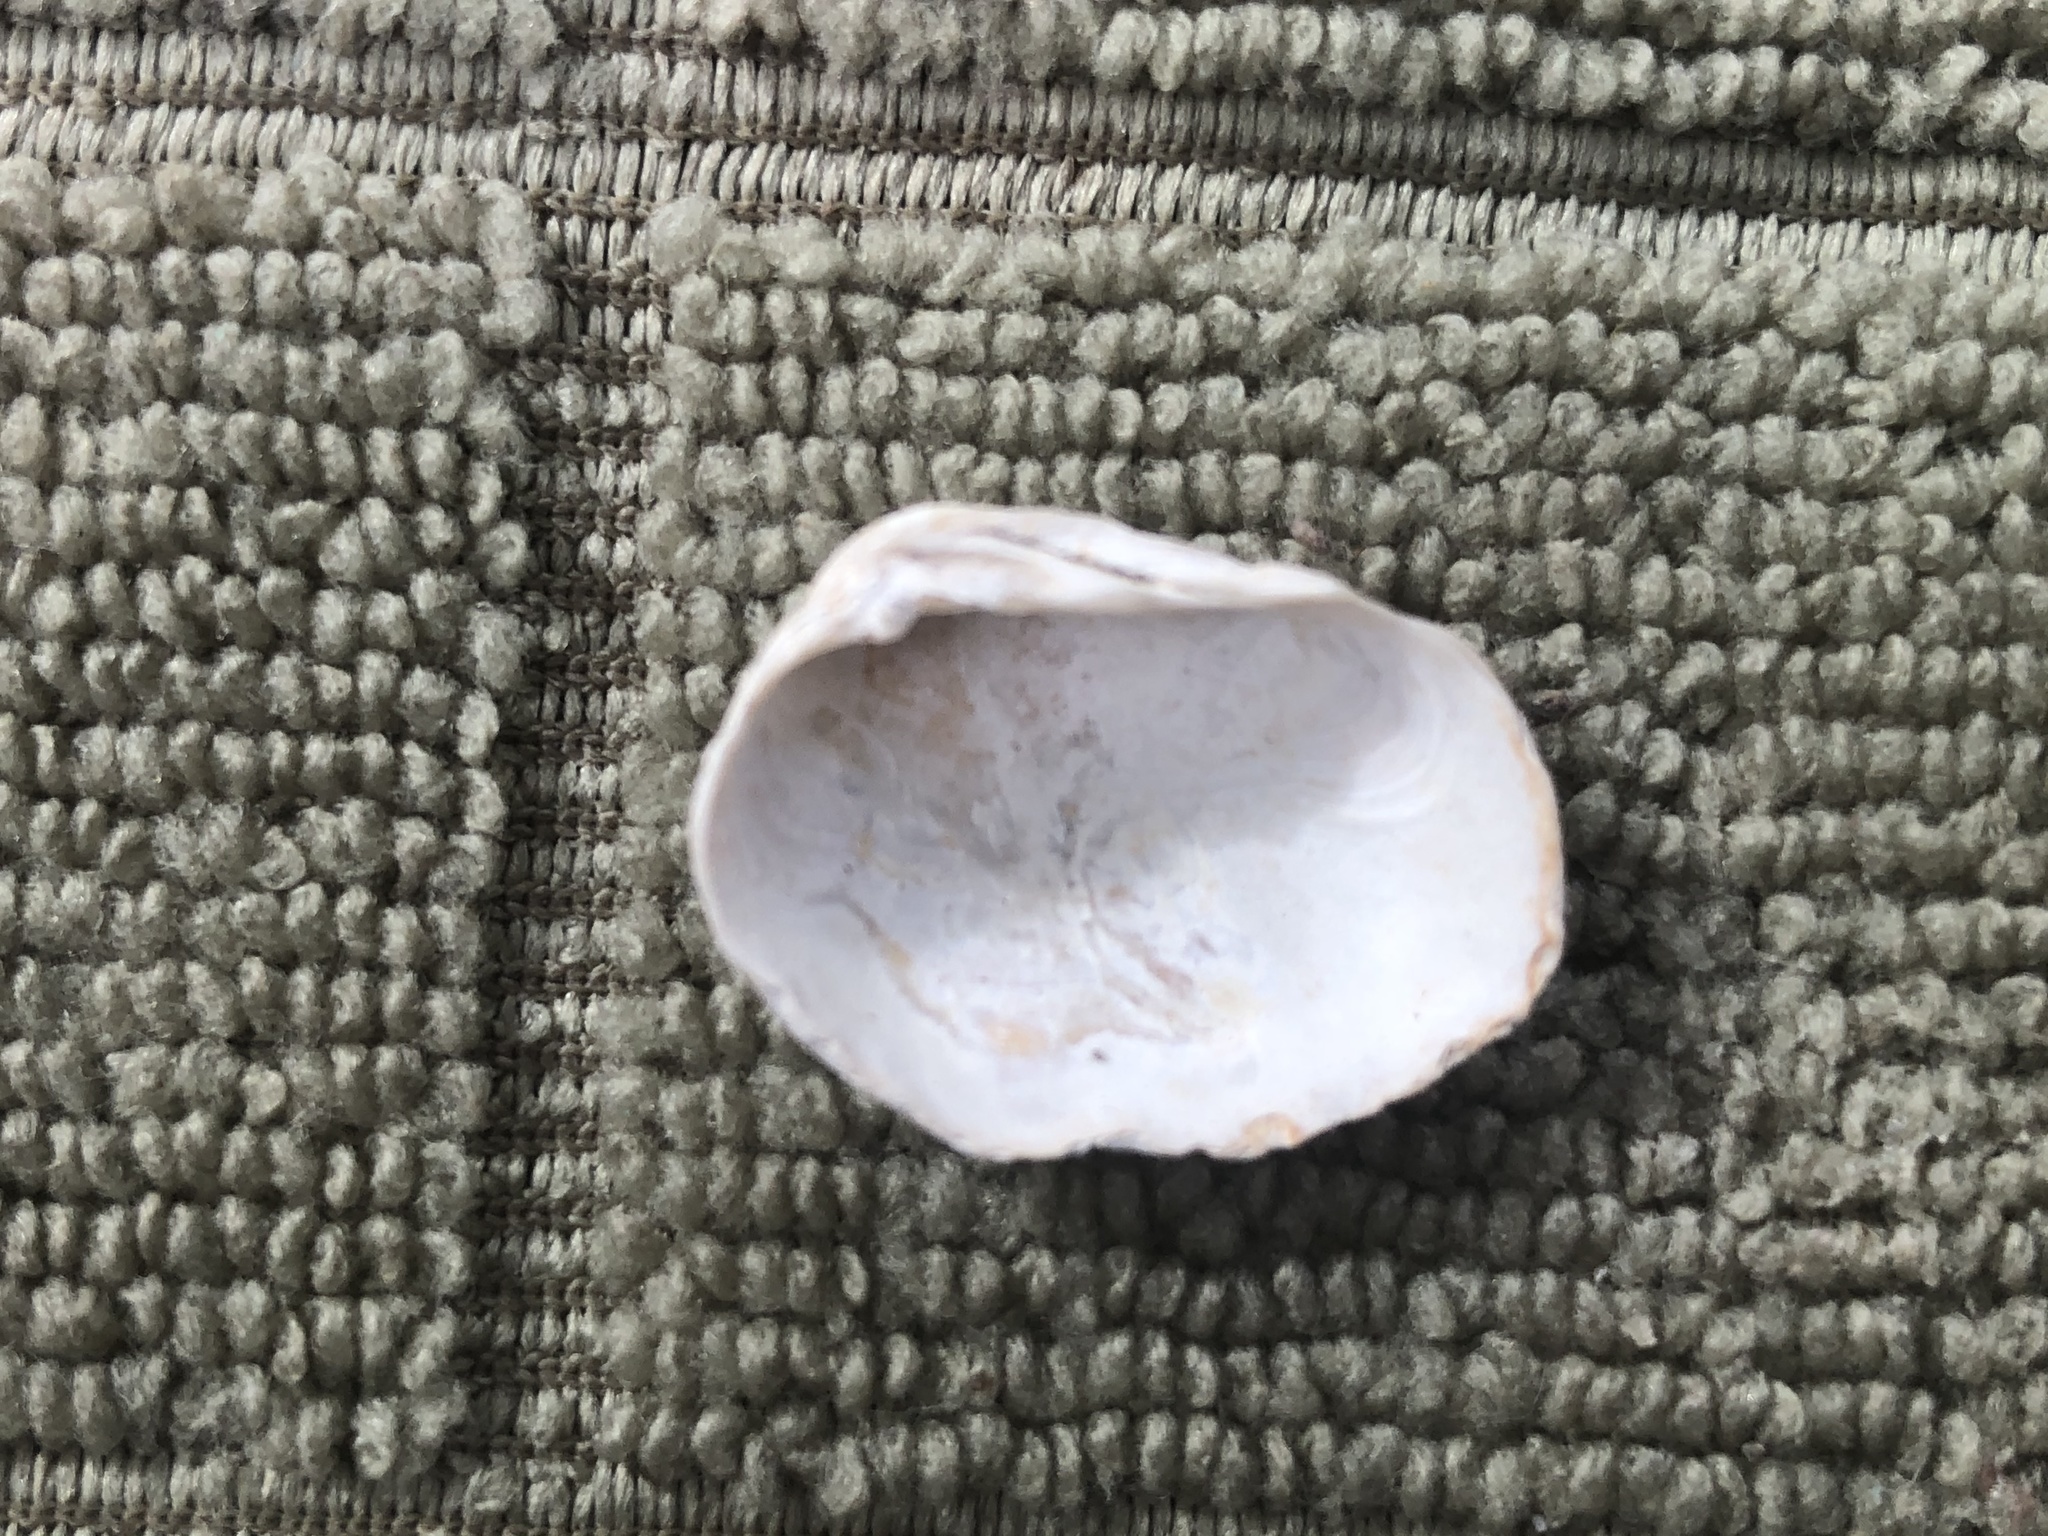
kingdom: Animalia
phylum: Mollusca
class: Bivalvia
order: Venerida
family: Veneridae
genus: Petricola
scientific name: Petricola carditoides
